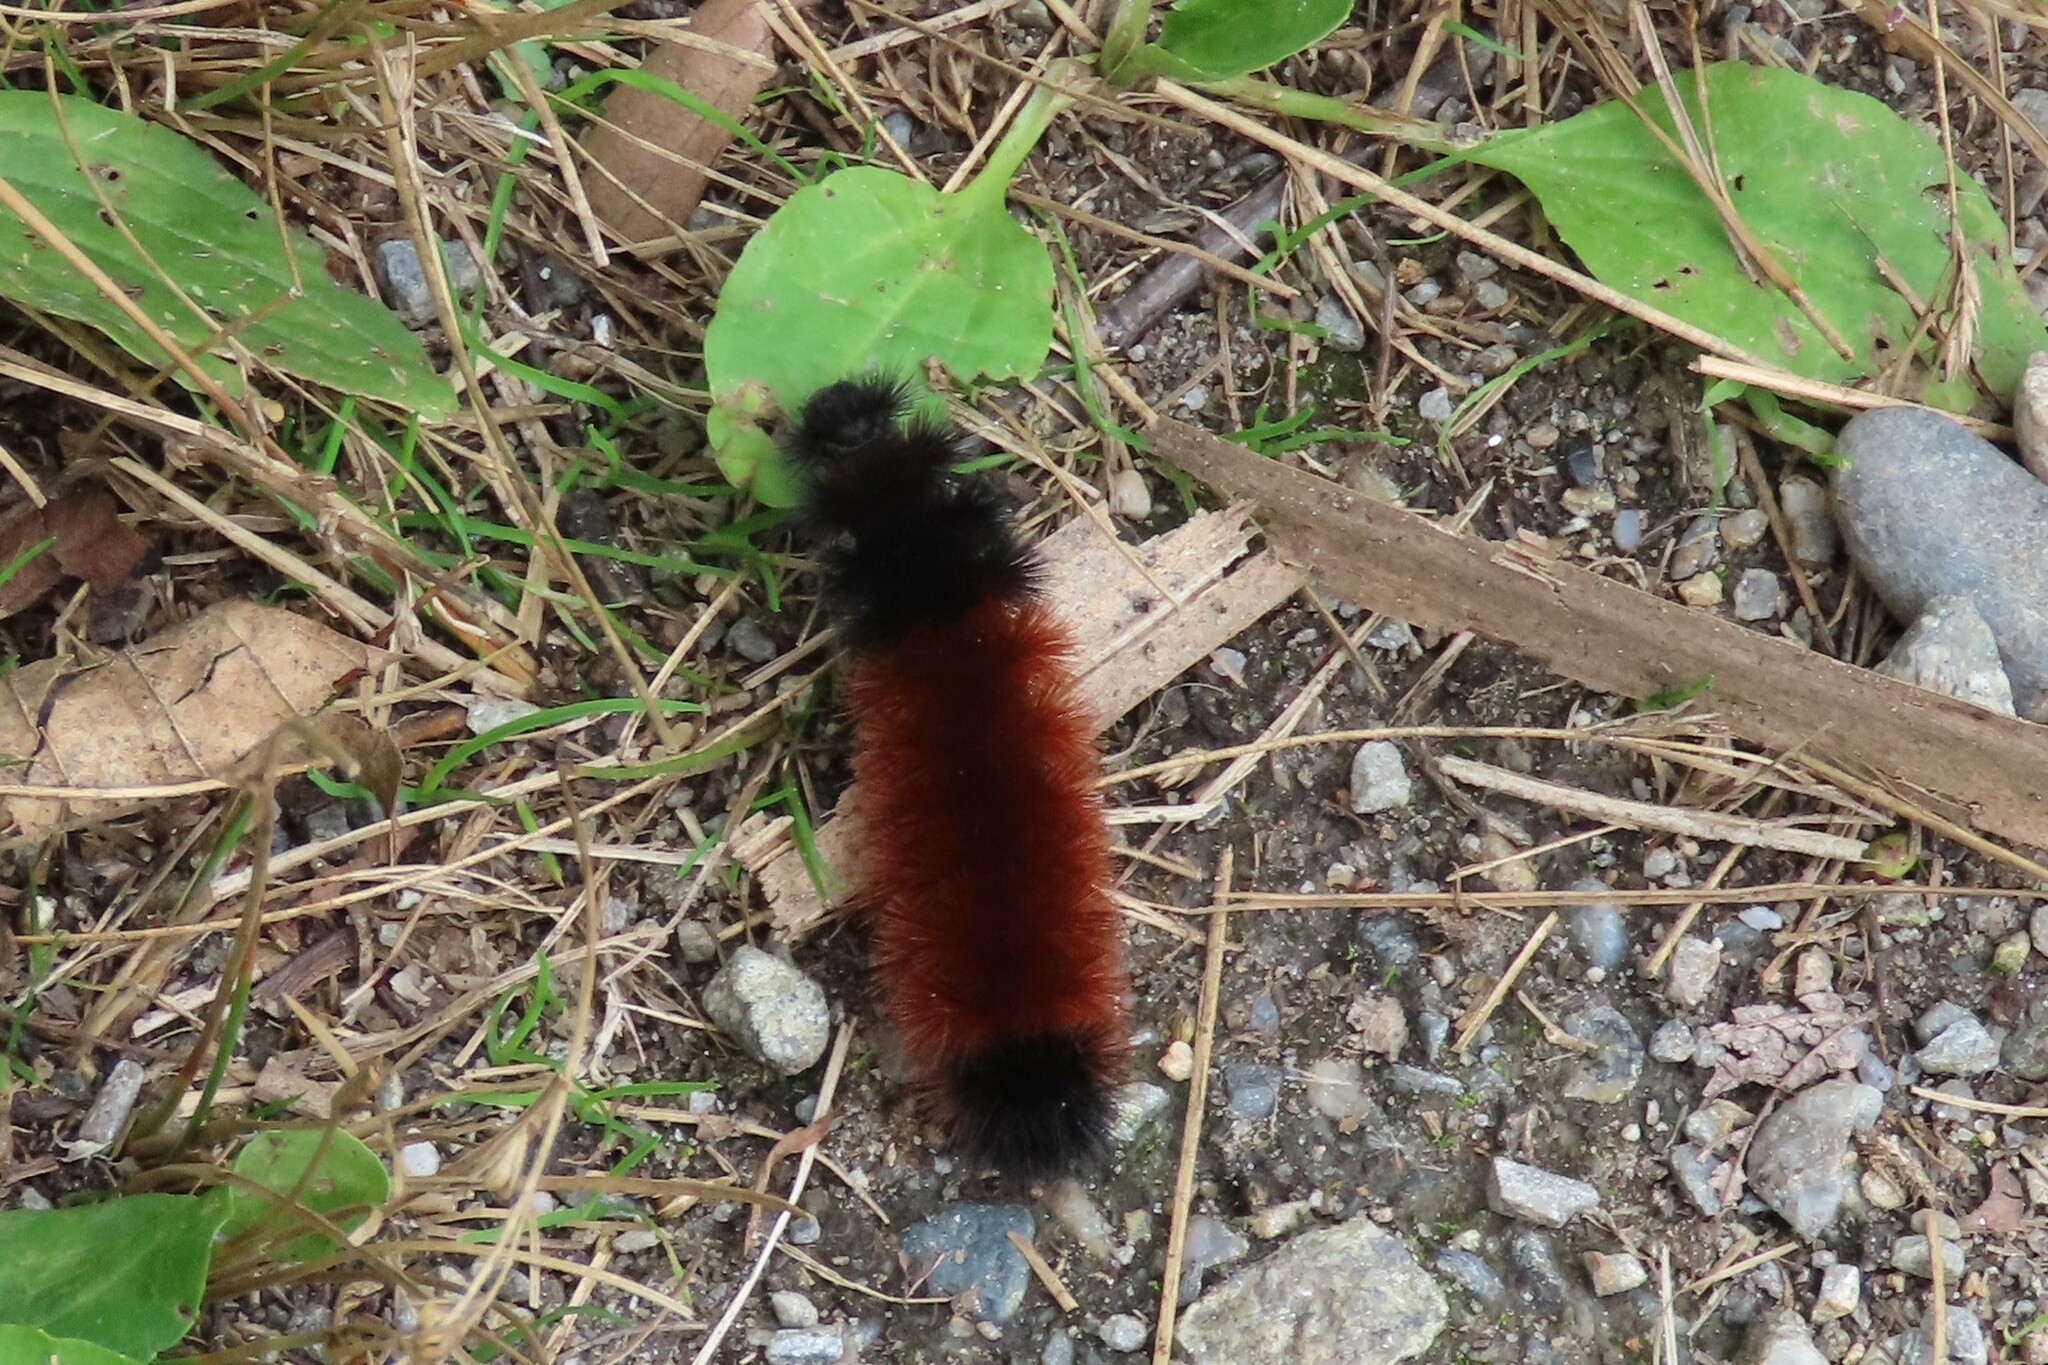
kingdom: Animalia
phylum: Arthropoda
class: Insecta
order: Lepidoptera
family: Erebidae
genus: Pyrrharctia
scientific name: Pyrrharctia isabella
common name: Isabella tiger moth
